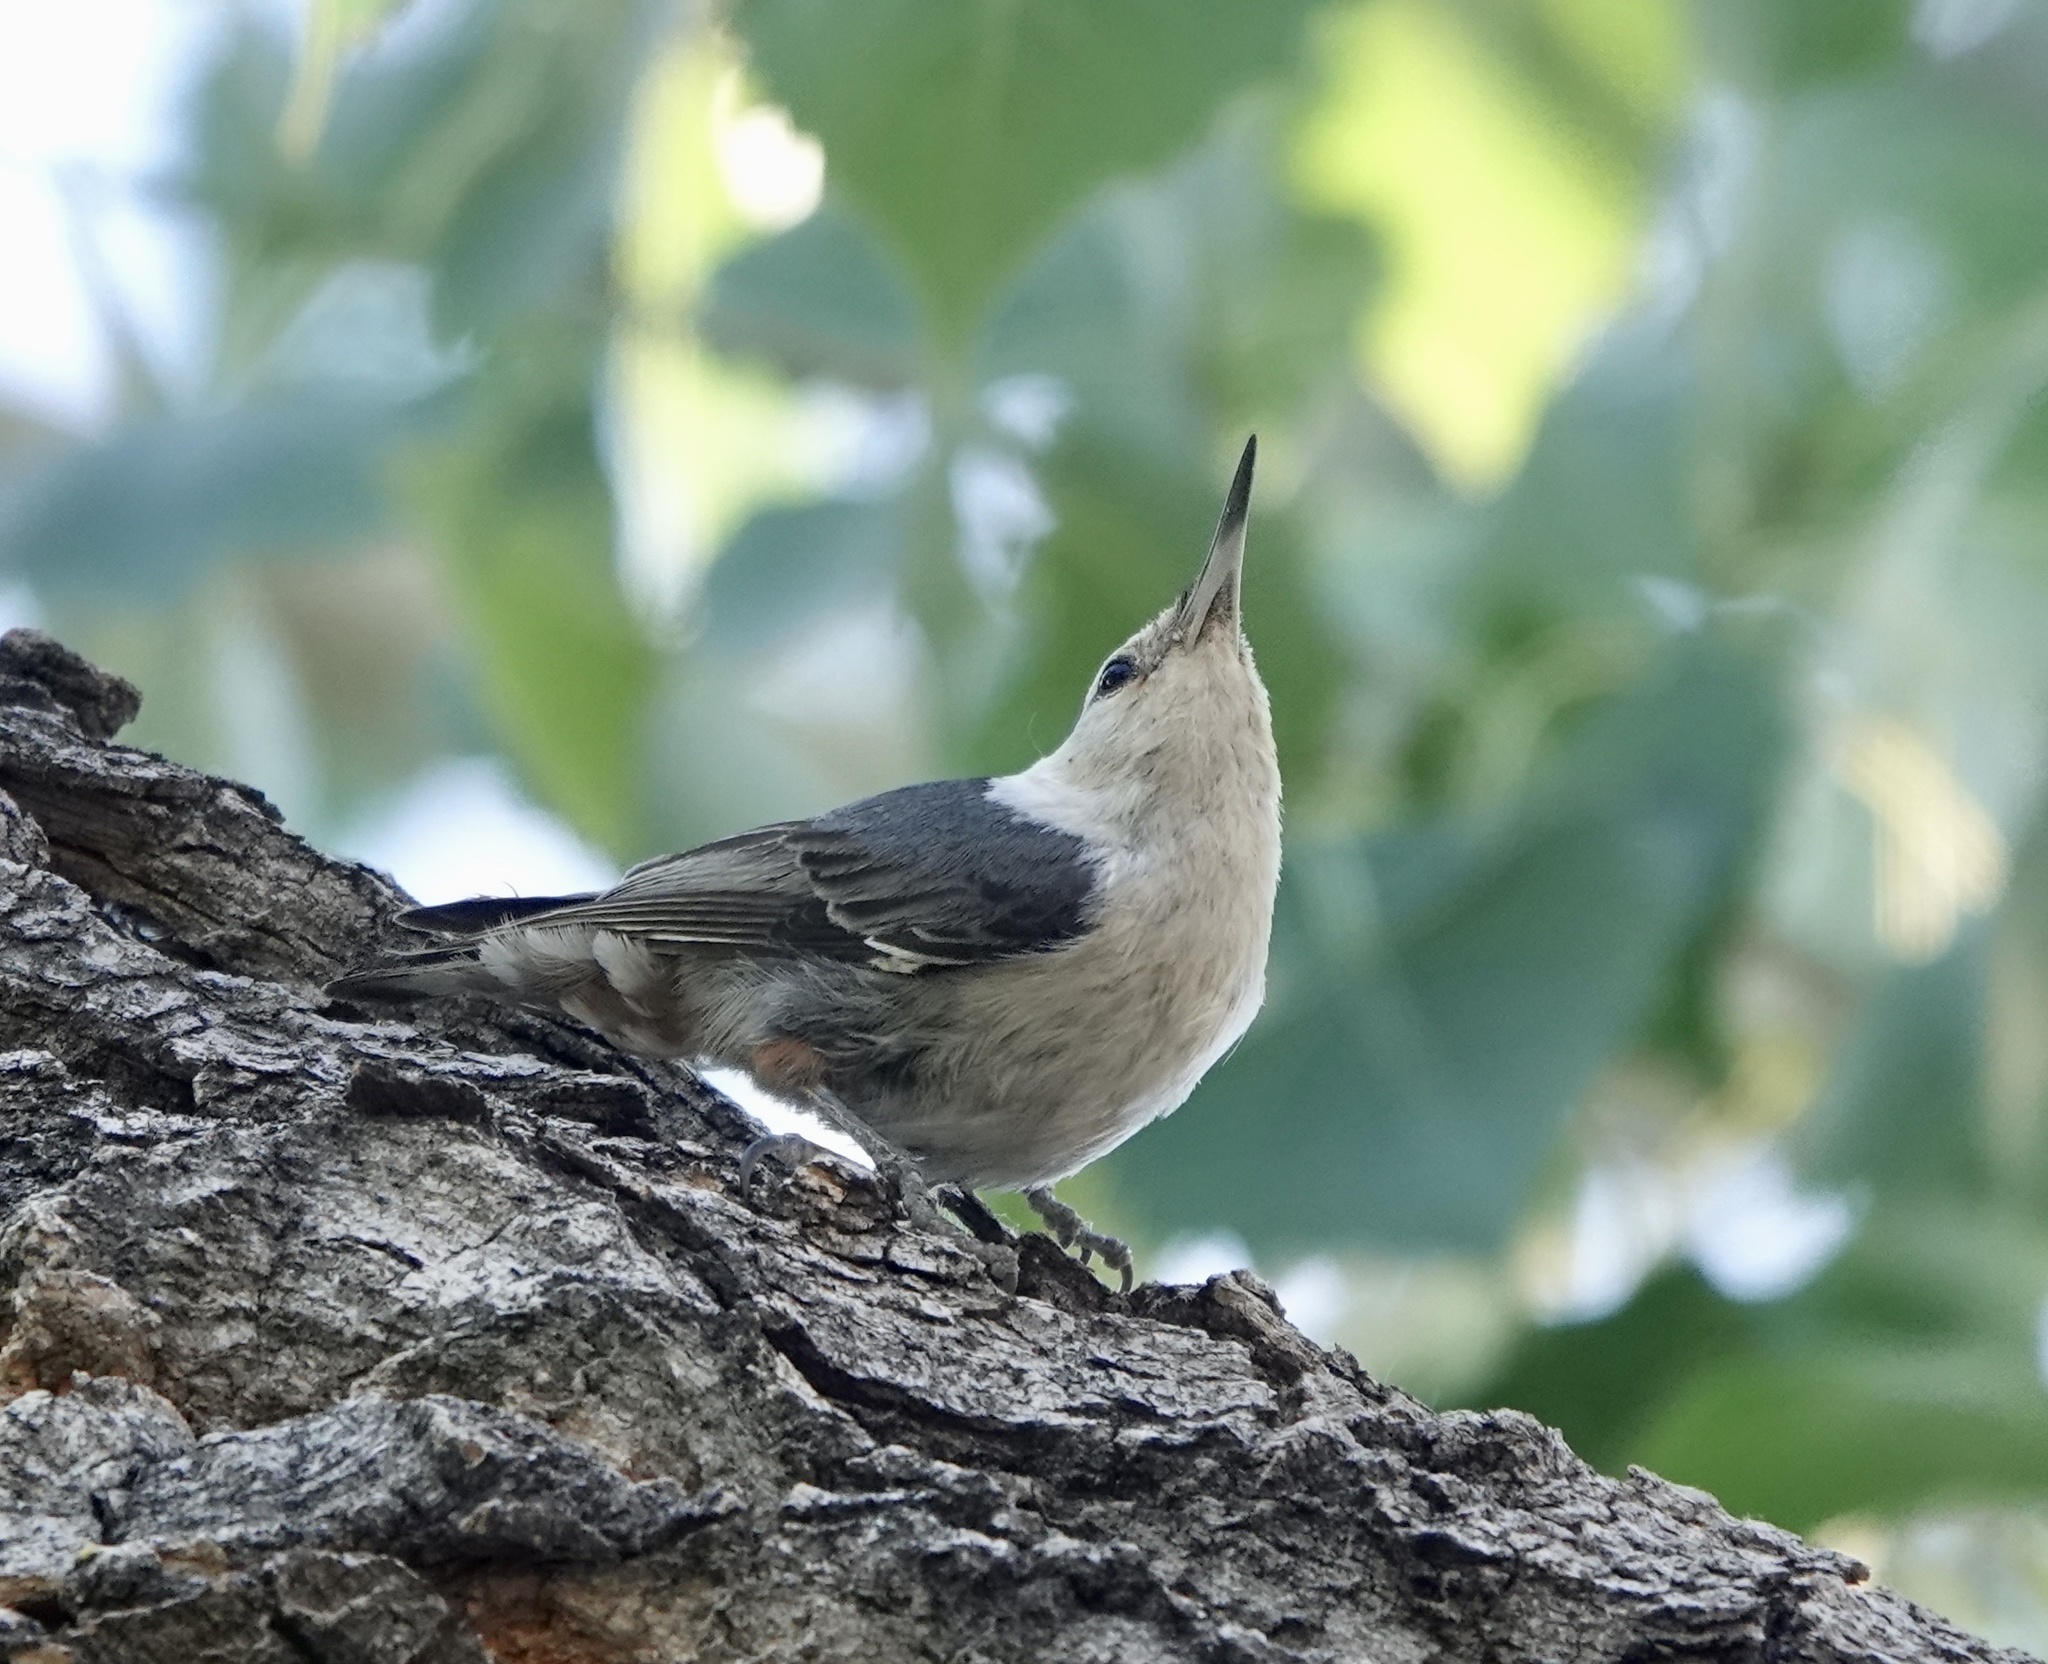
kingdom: Animalia
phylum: Chordata
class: Aves
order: Passeriformes
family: Sittidae
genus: Sitta
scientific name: Sitta carolinensis
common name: White-breasted nuthatch
